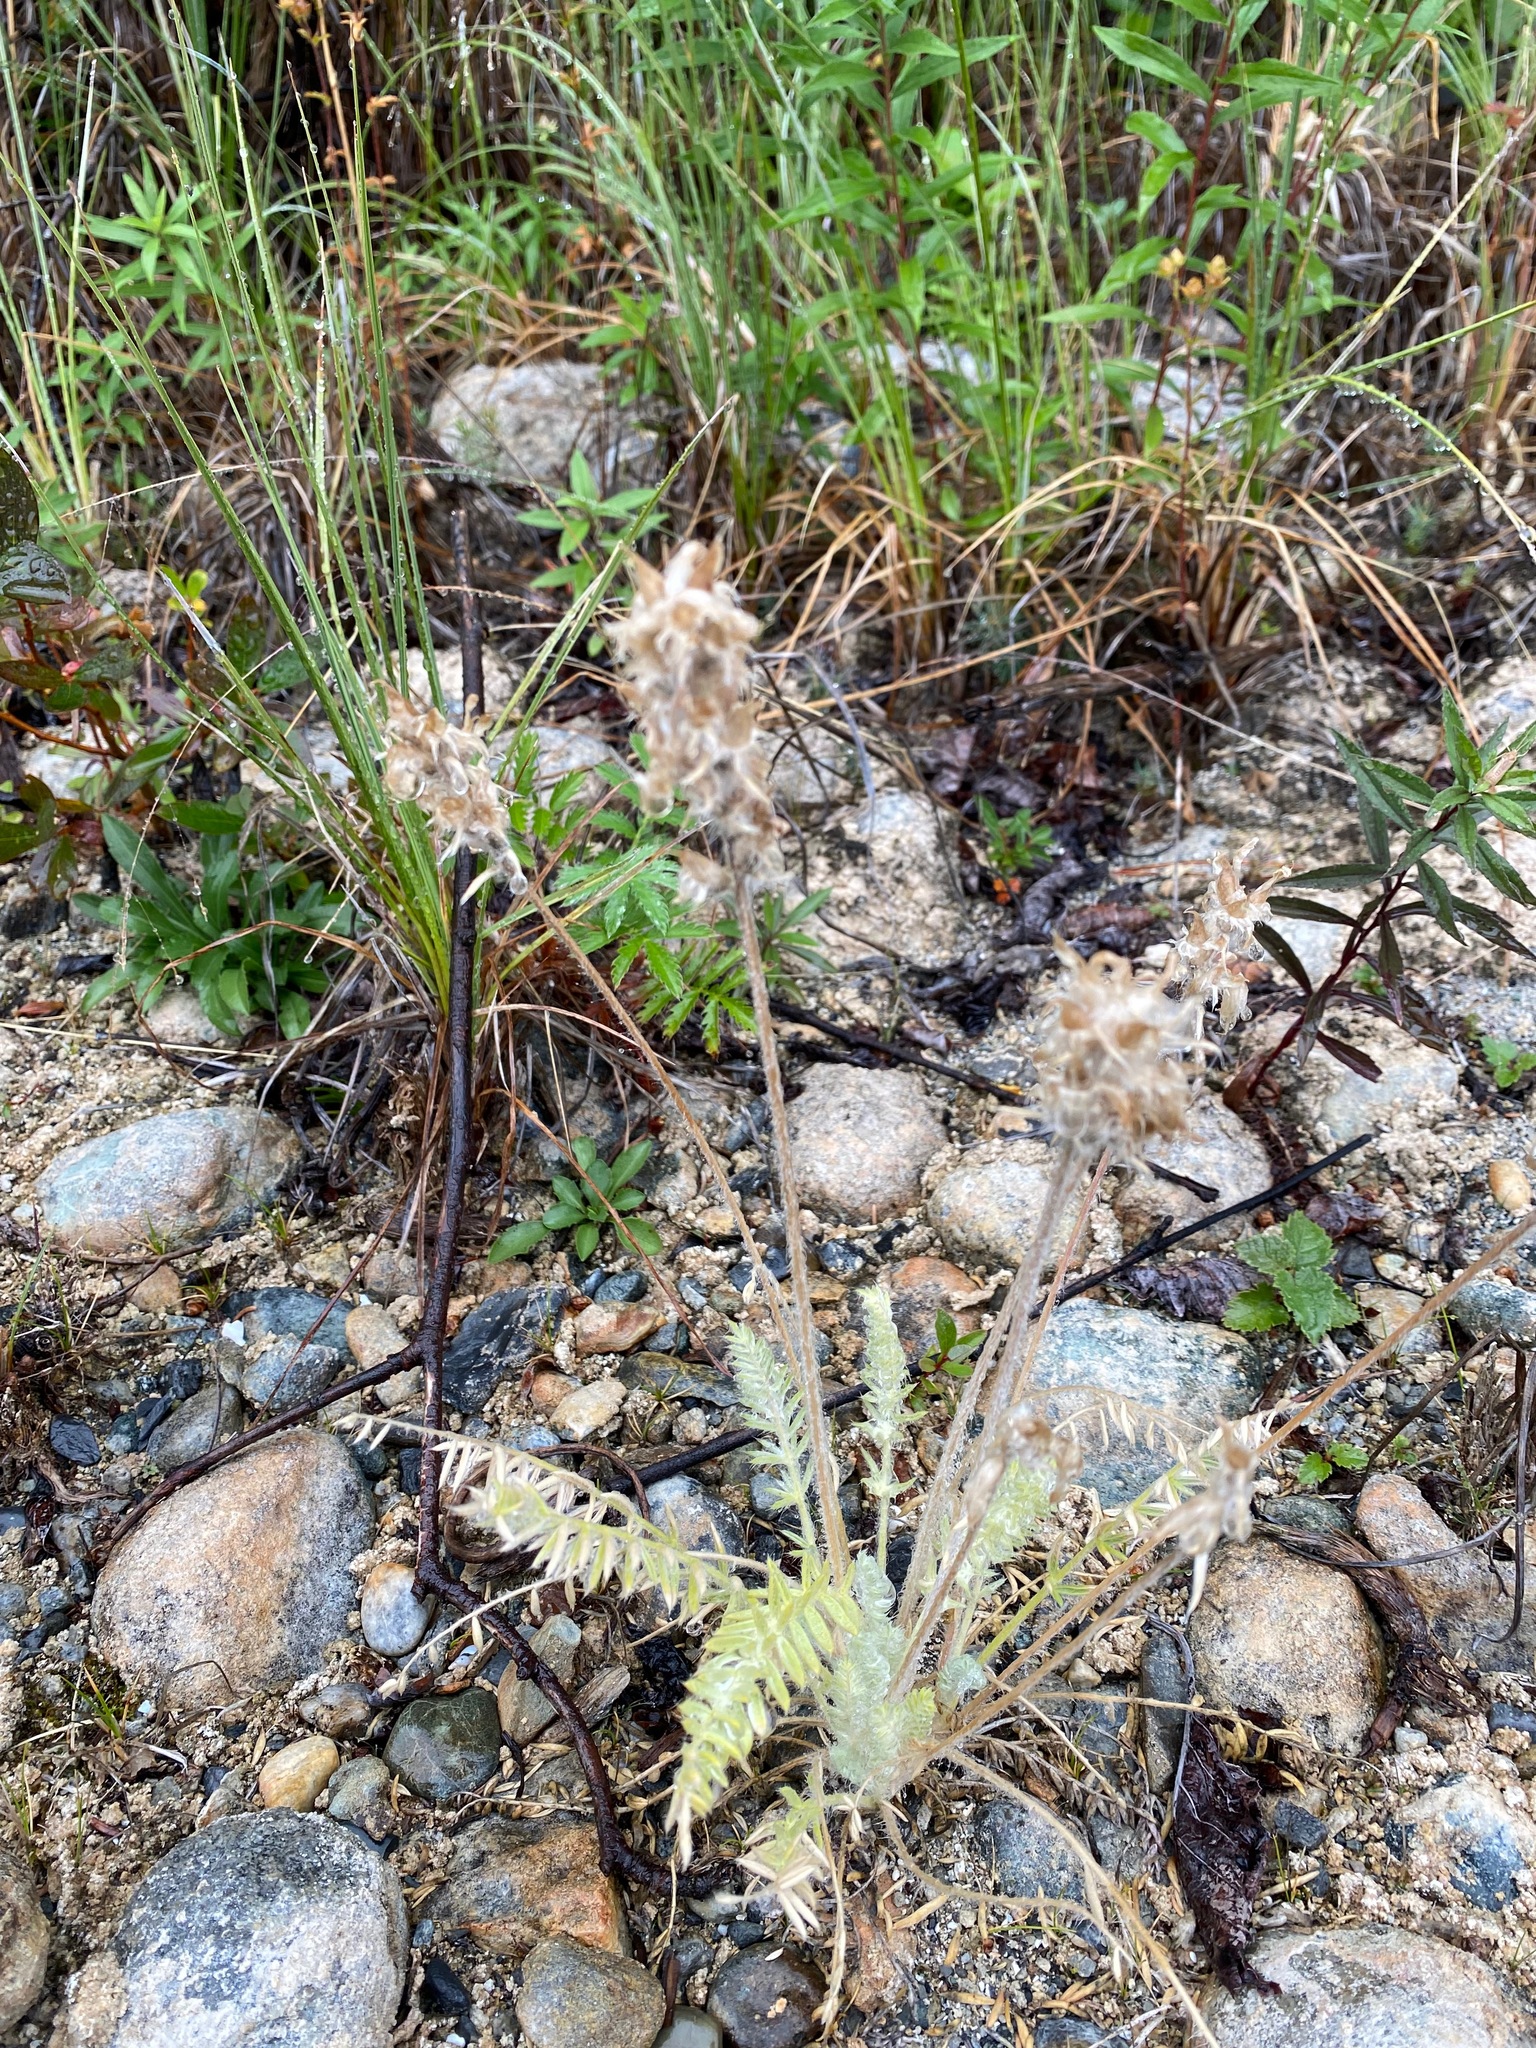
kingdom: Plantae
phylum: Tracheophyta
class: Magnoliopsida
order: Fabales
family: Fabaceae
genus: Oxytropis
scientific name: Oxytropis splendens
